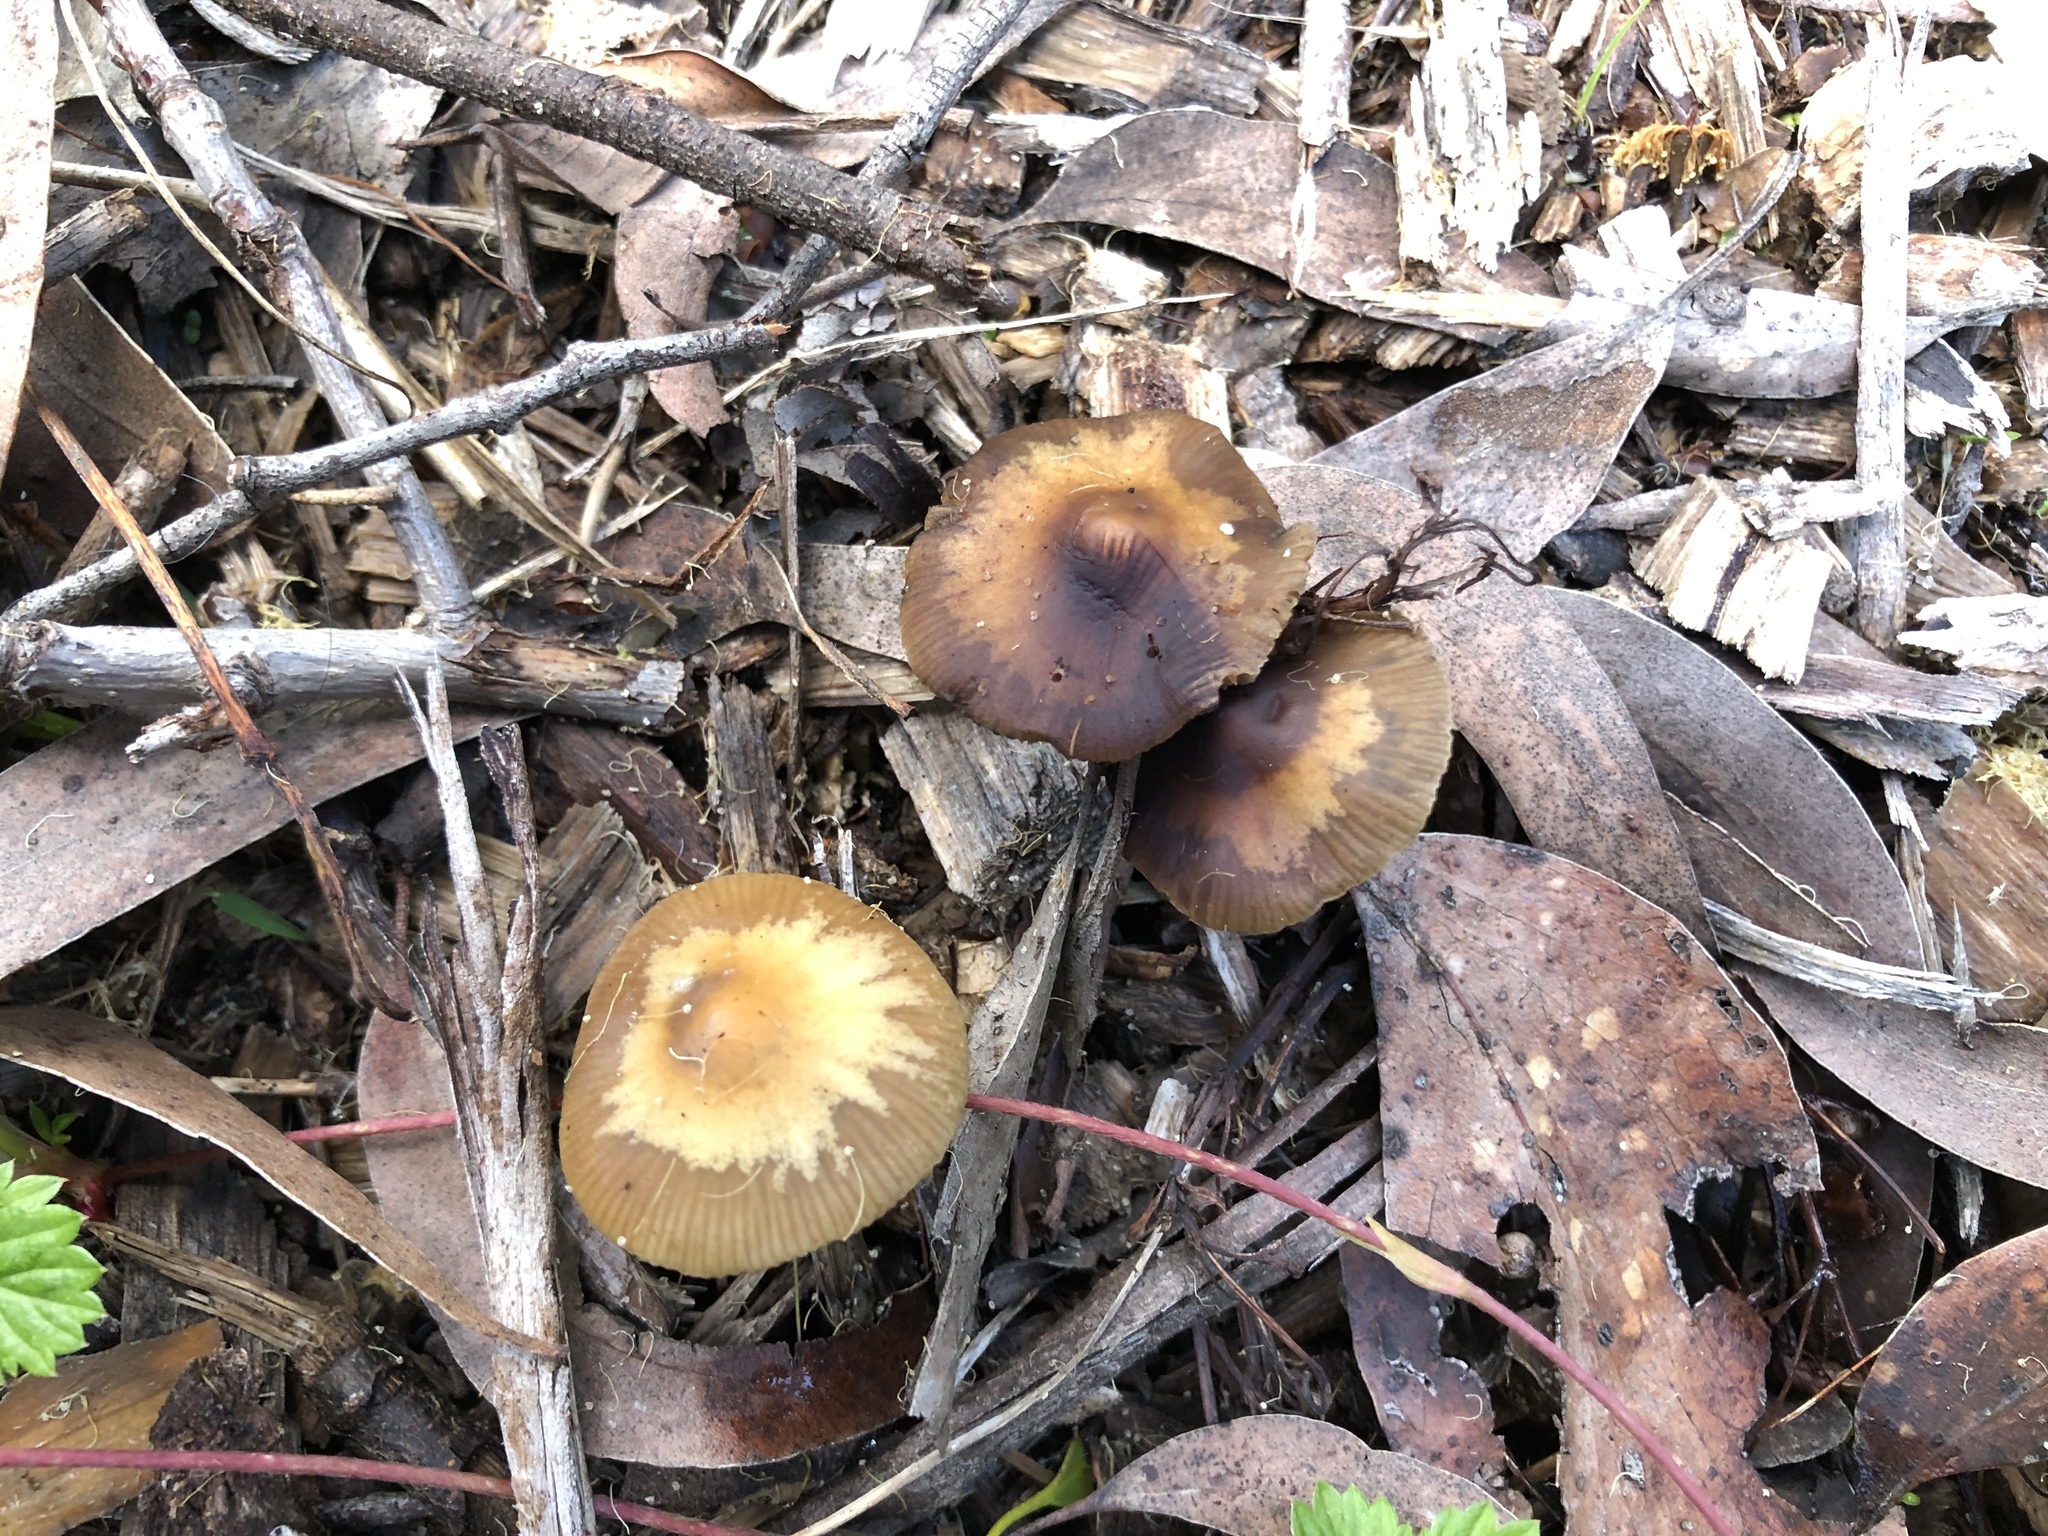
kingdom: Fungi
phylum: Basidiomycota
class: Agaricomycetes
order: Agaricales
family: Hymenogastraceae
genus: Psilocybe
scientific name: Psilocybe subaeruginosa
